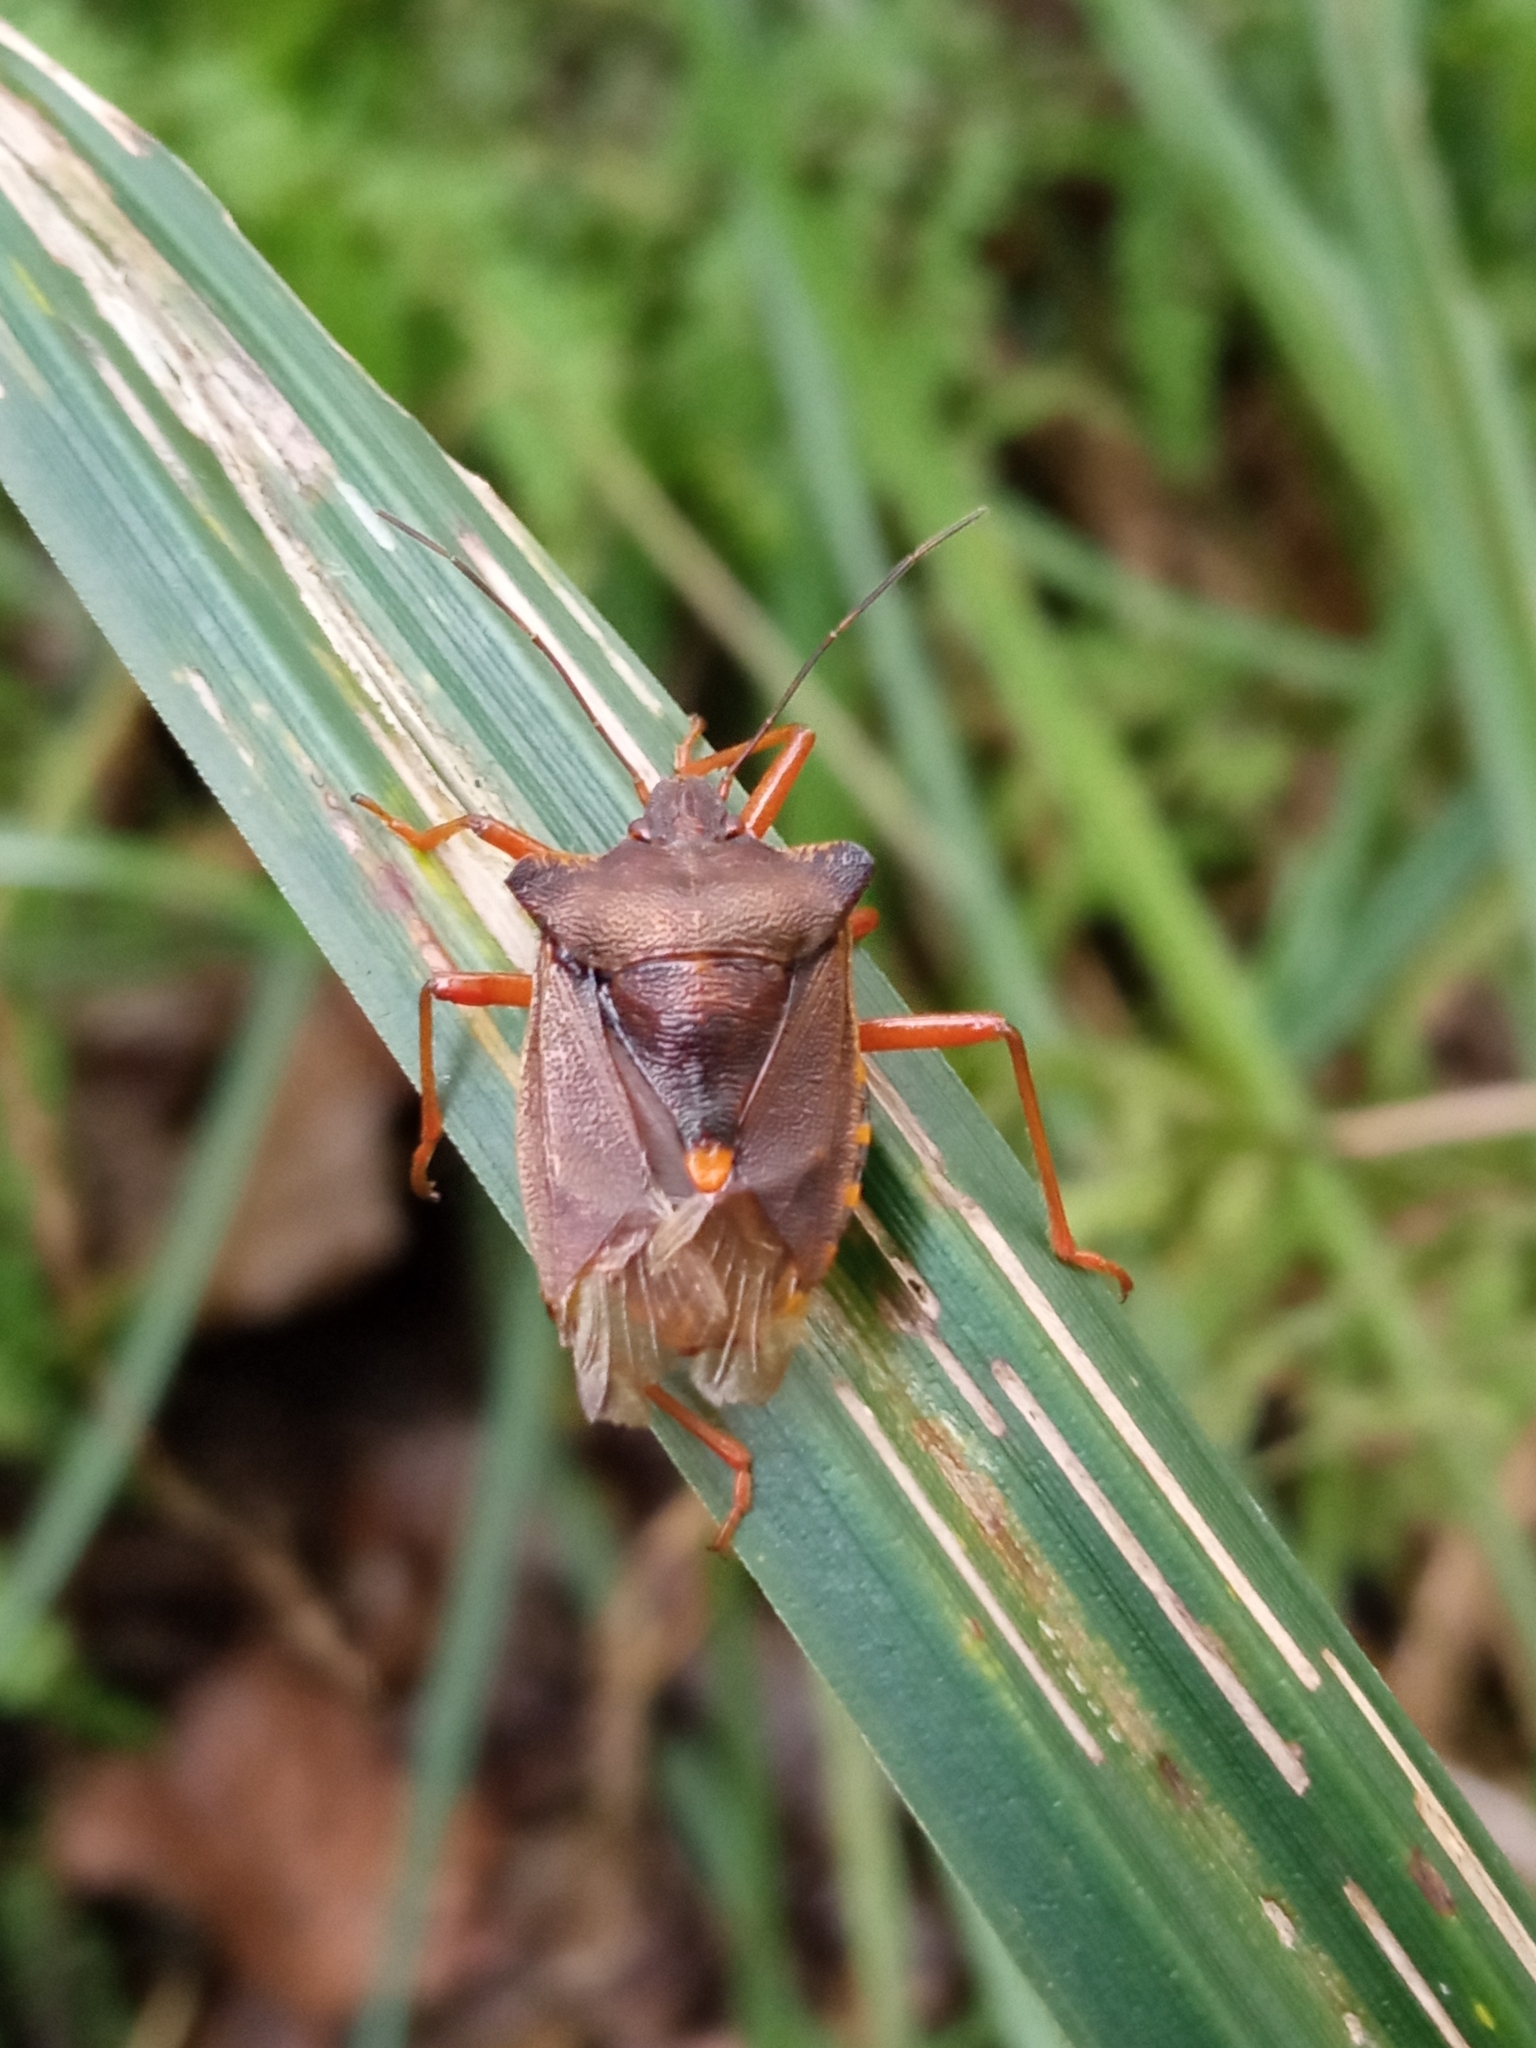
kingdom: Animalia
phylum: Arthropoda
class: Insecta
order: Hemiptera
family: Pentatomidae
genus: Pentatoma
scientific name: Pentatoma rufipes
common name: Forest bug
